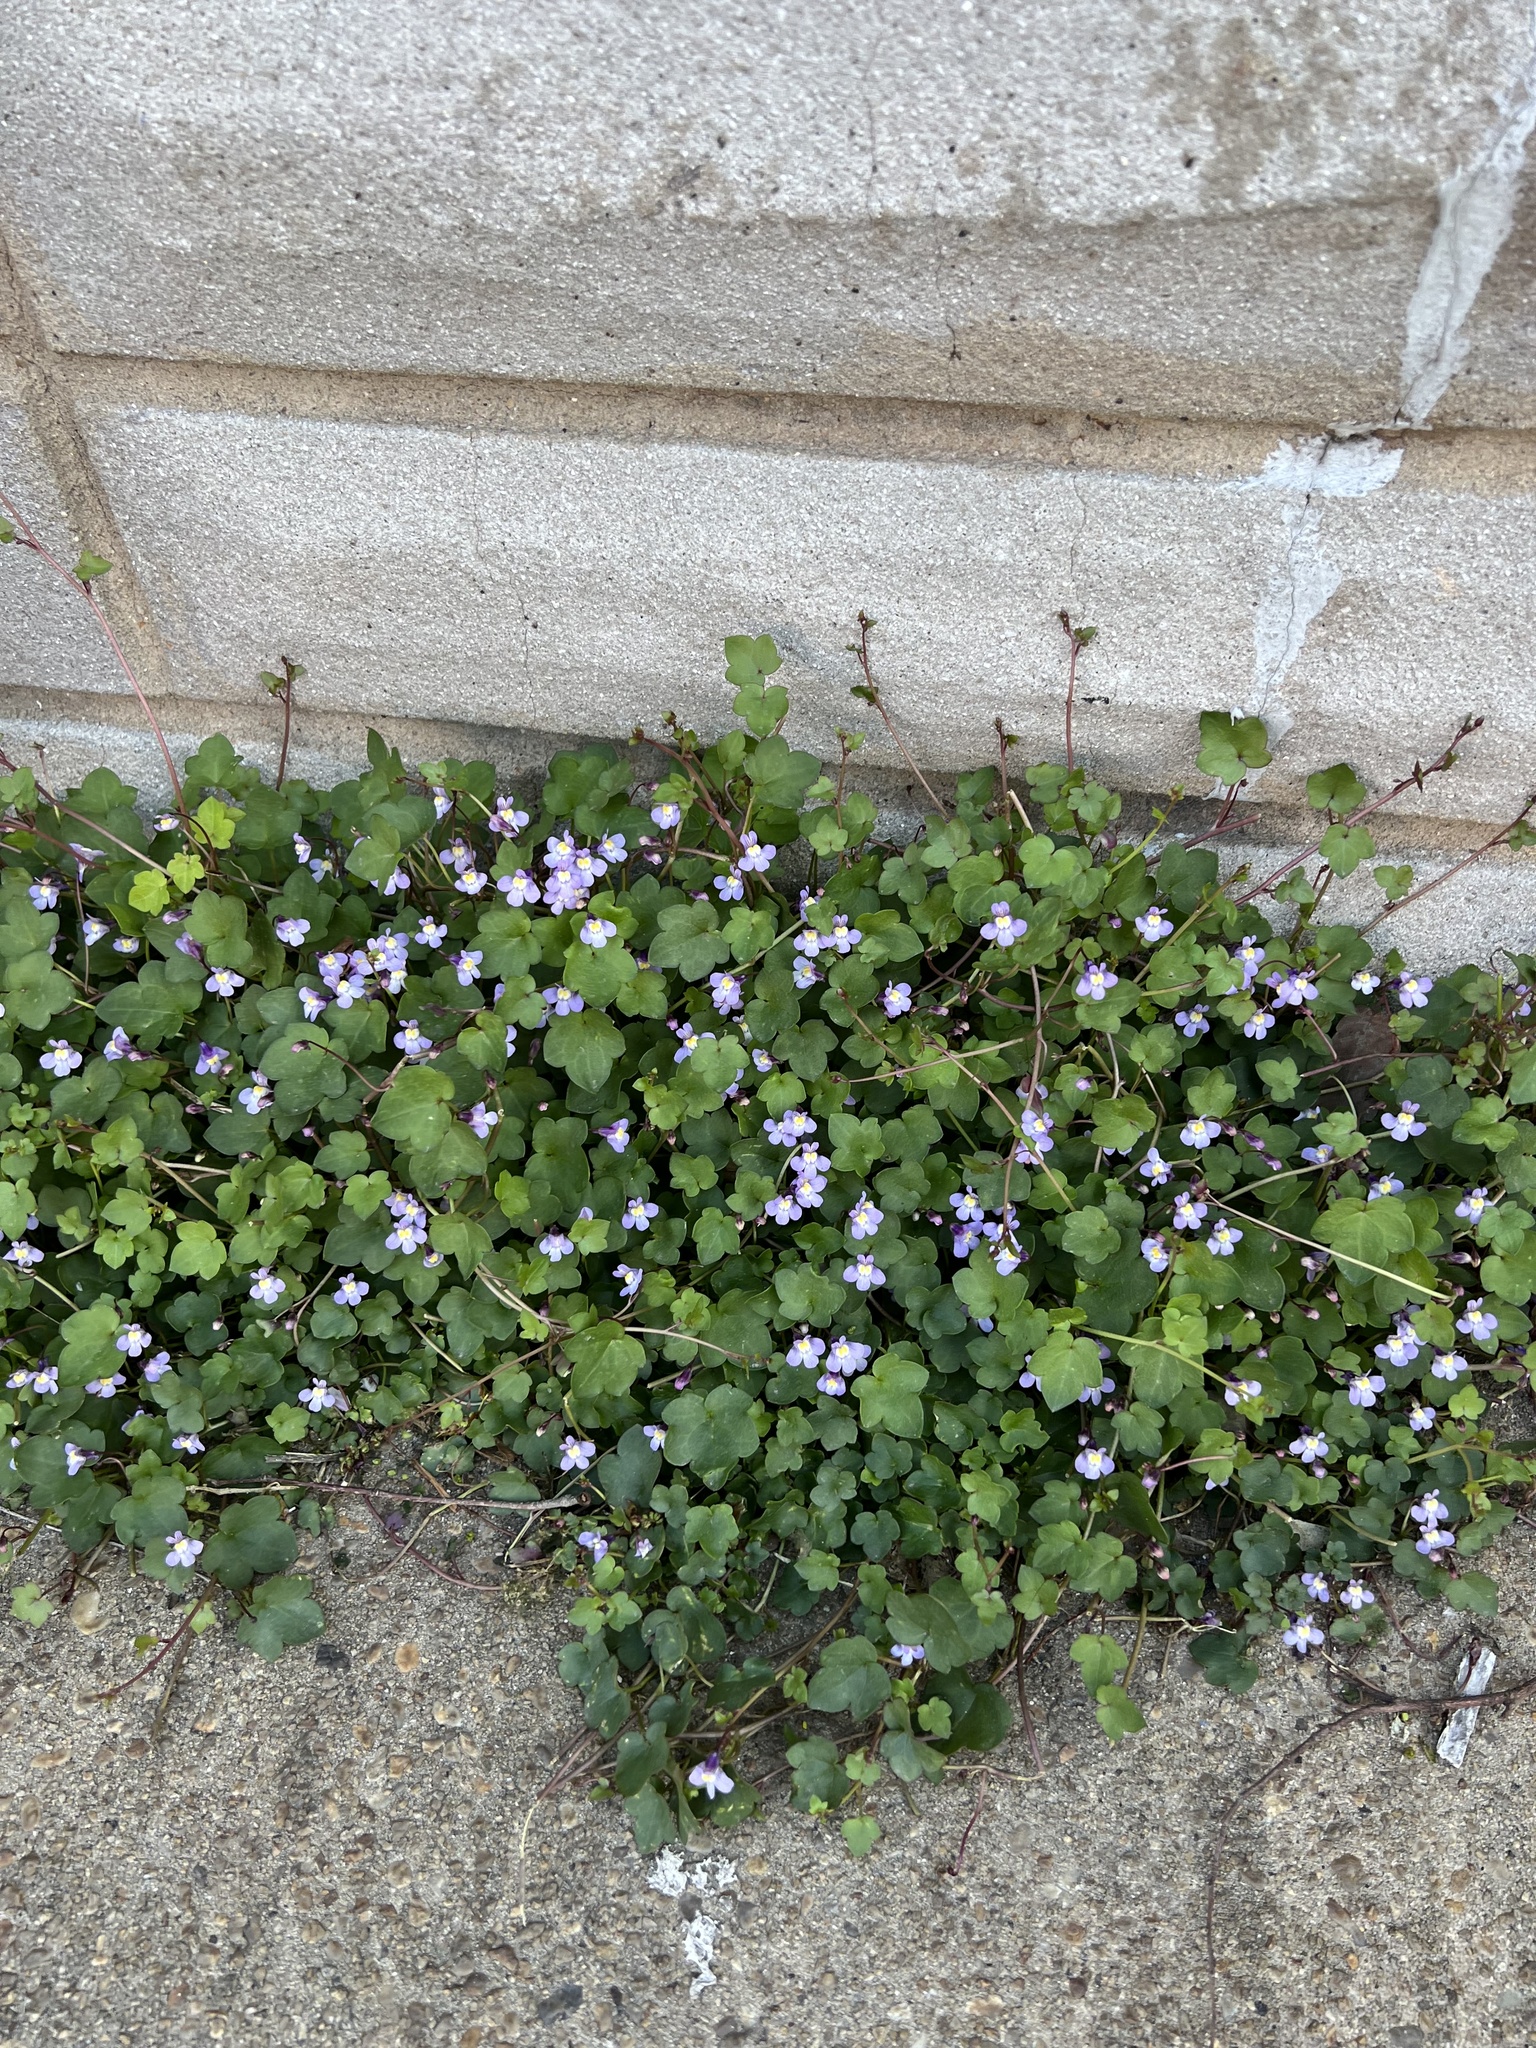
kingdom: Plantae
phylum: Tracheophyta
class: Magnoliopsida
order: Lamiales
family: Plantaginaceae
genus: Cymbalaria
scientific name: Cymbalaria muralis
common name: Ivy-leaved toadflax
